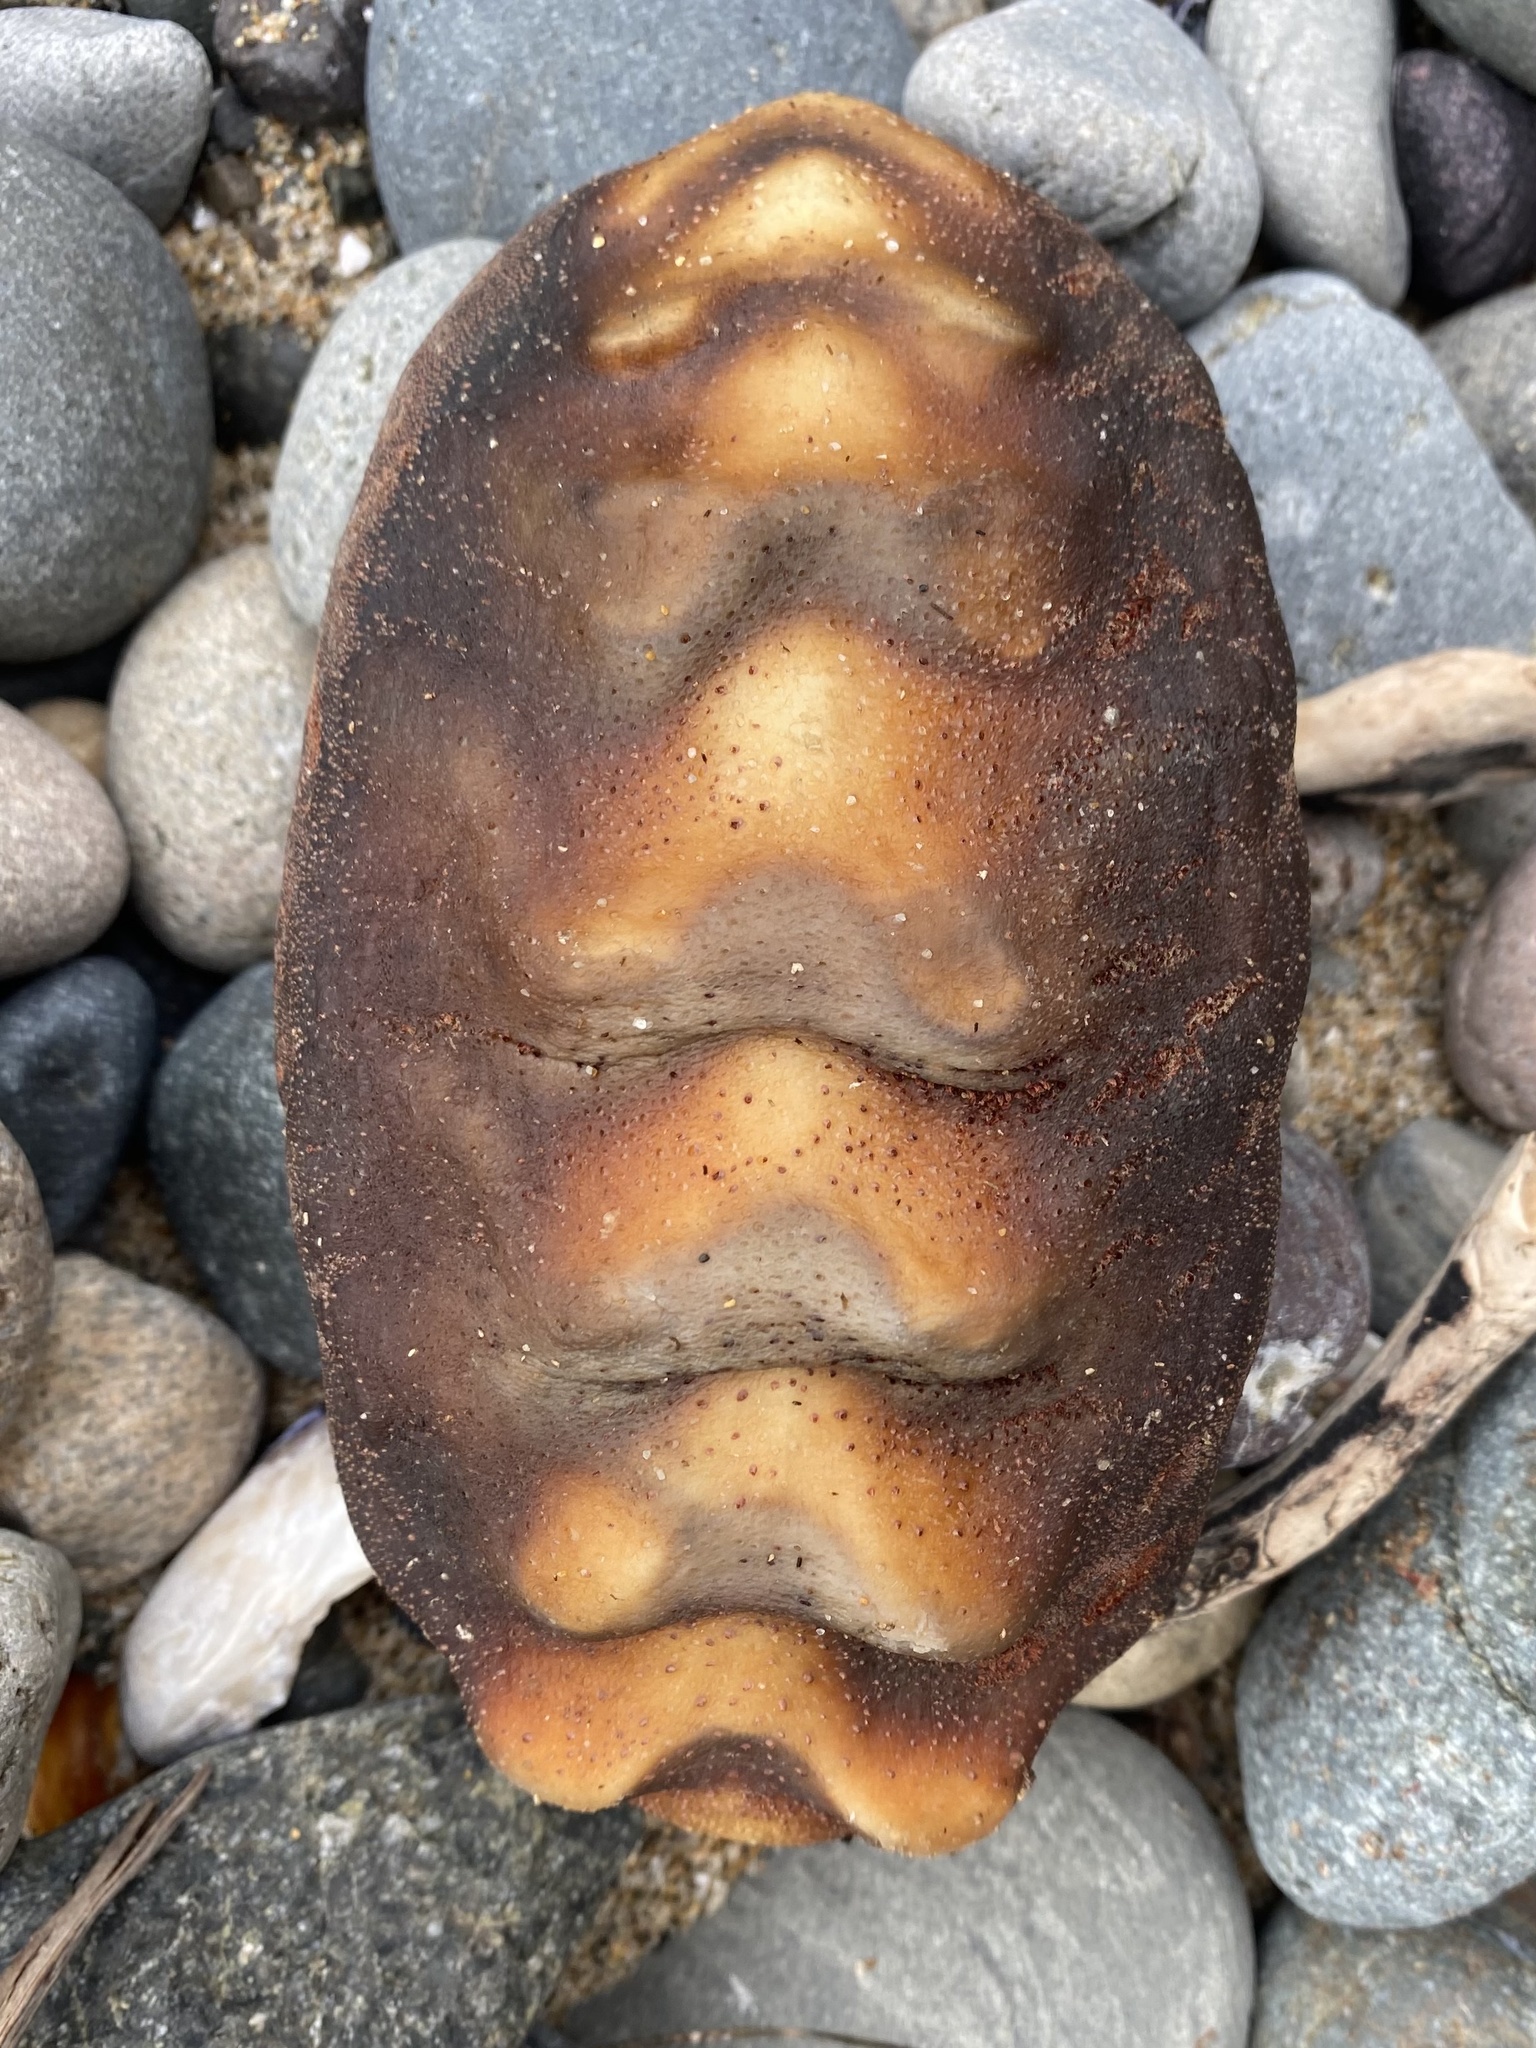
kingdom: Animalia
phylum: Mollusca
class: Polyplacophora
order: Chitonida
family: Acanthochitonidae
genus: Cryptochiton
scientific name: Cryptochiton stelleri
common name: Giant pacific chiton
